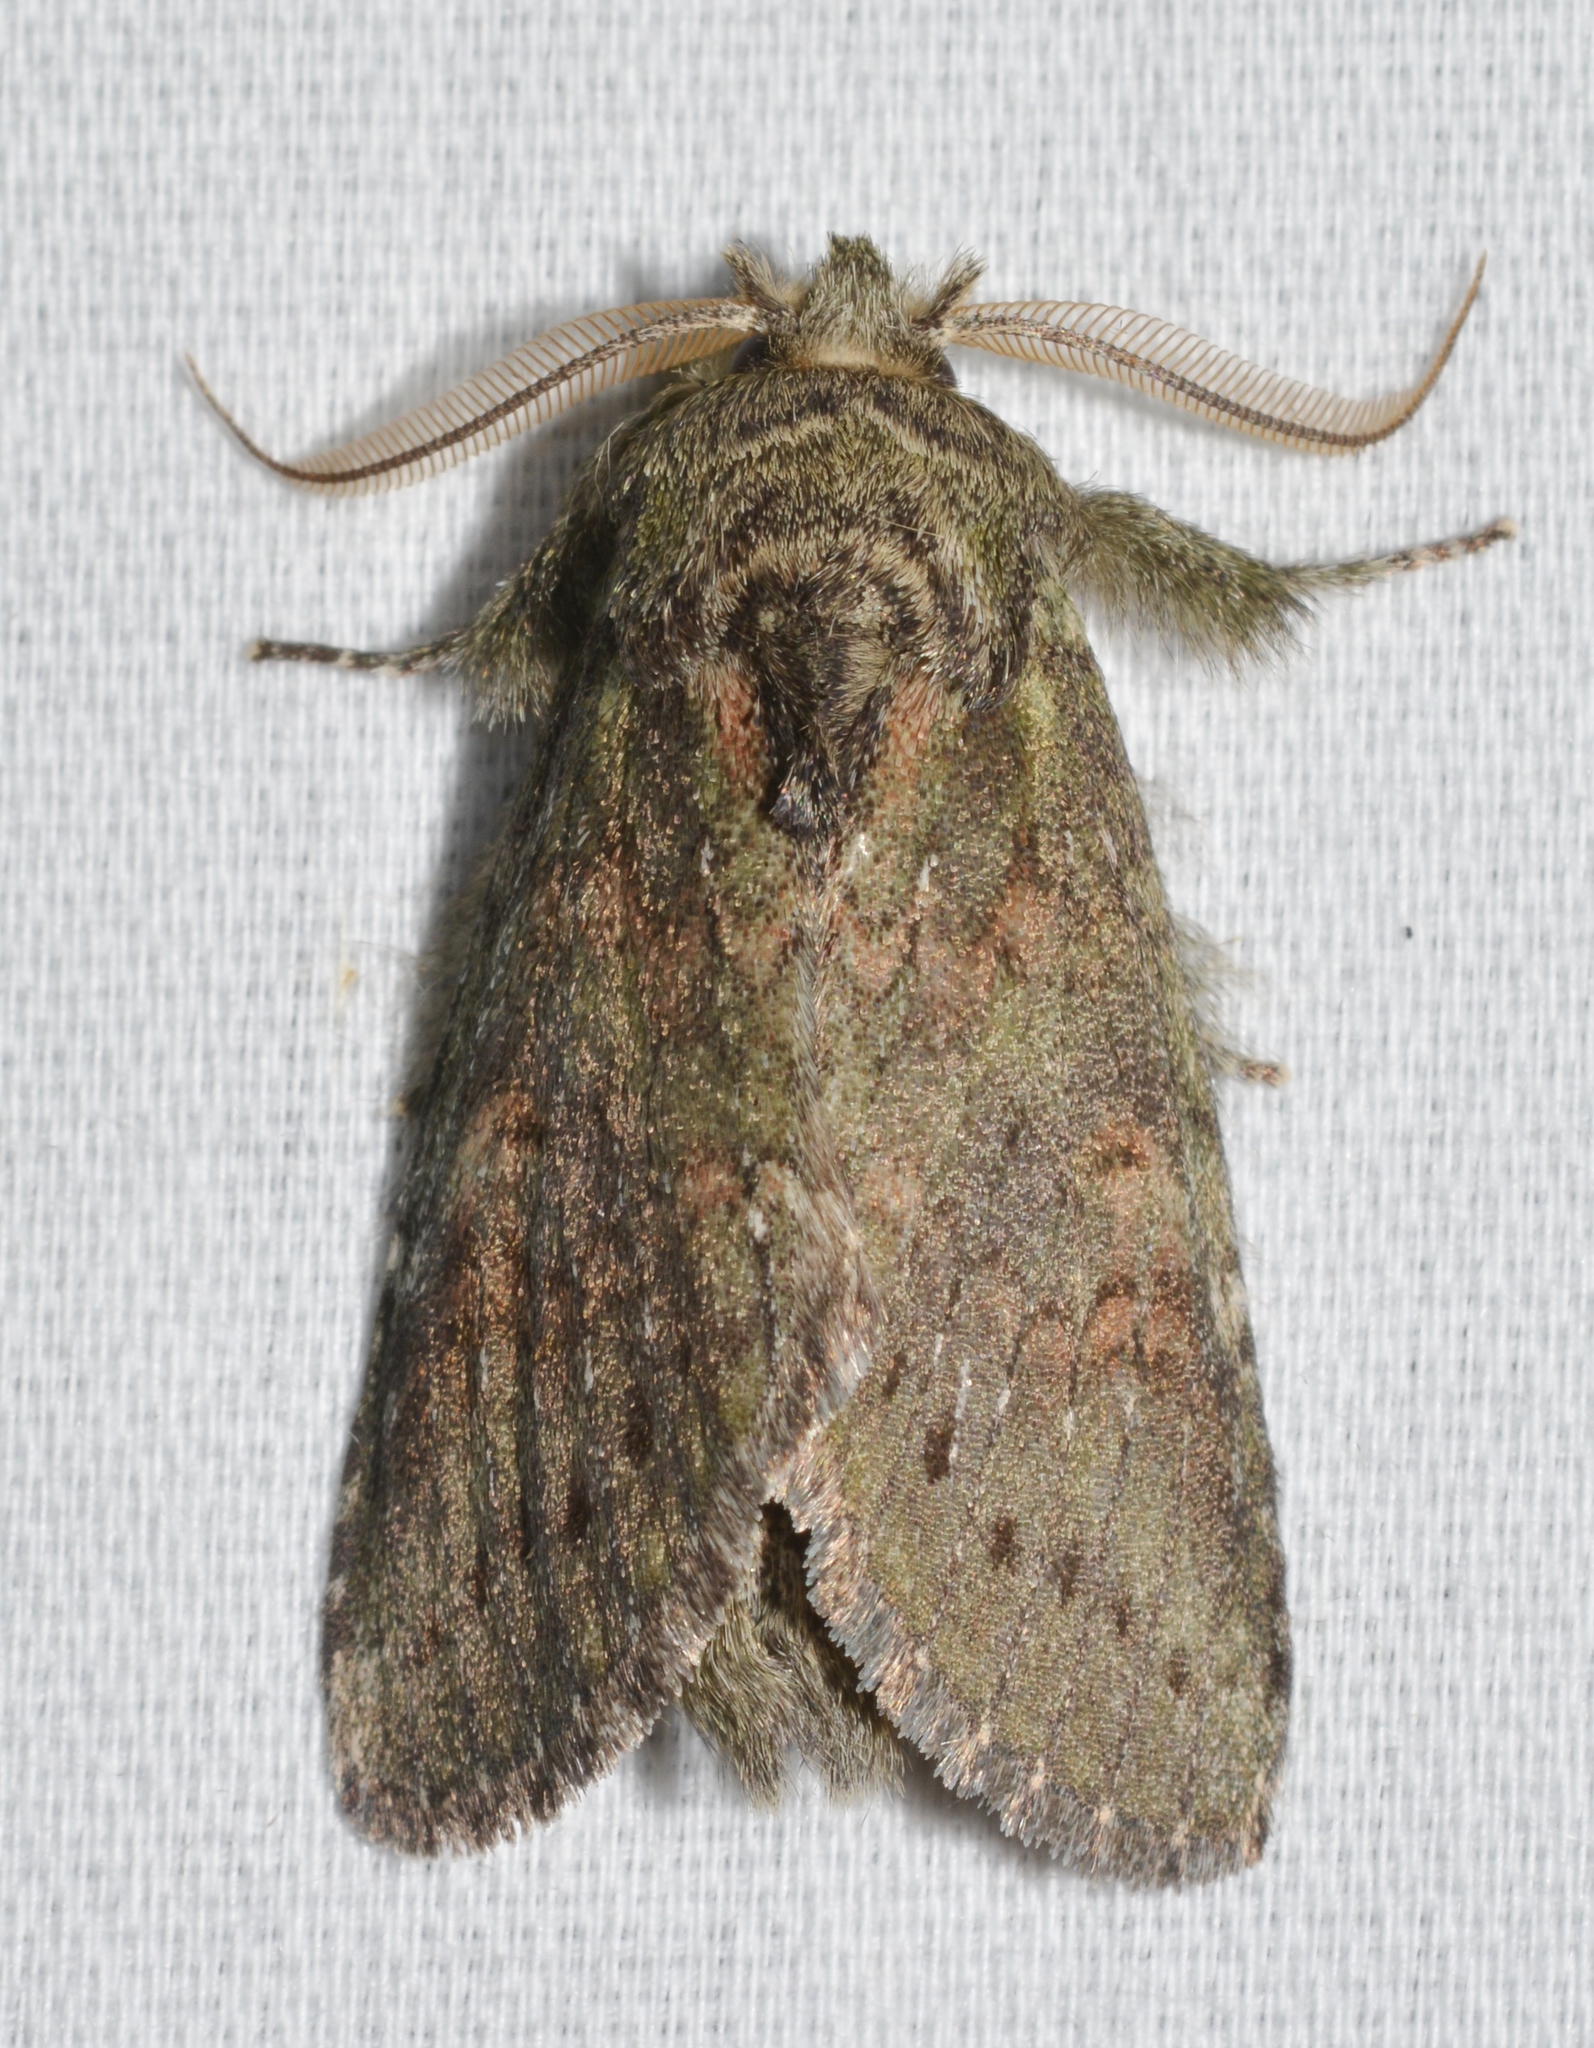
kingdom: Animalia
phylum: Arthropoda
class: Insecta
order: Lepidoptera
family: Notodontidae
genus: Disphragis
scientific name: Disphragis Cecrita biundata
